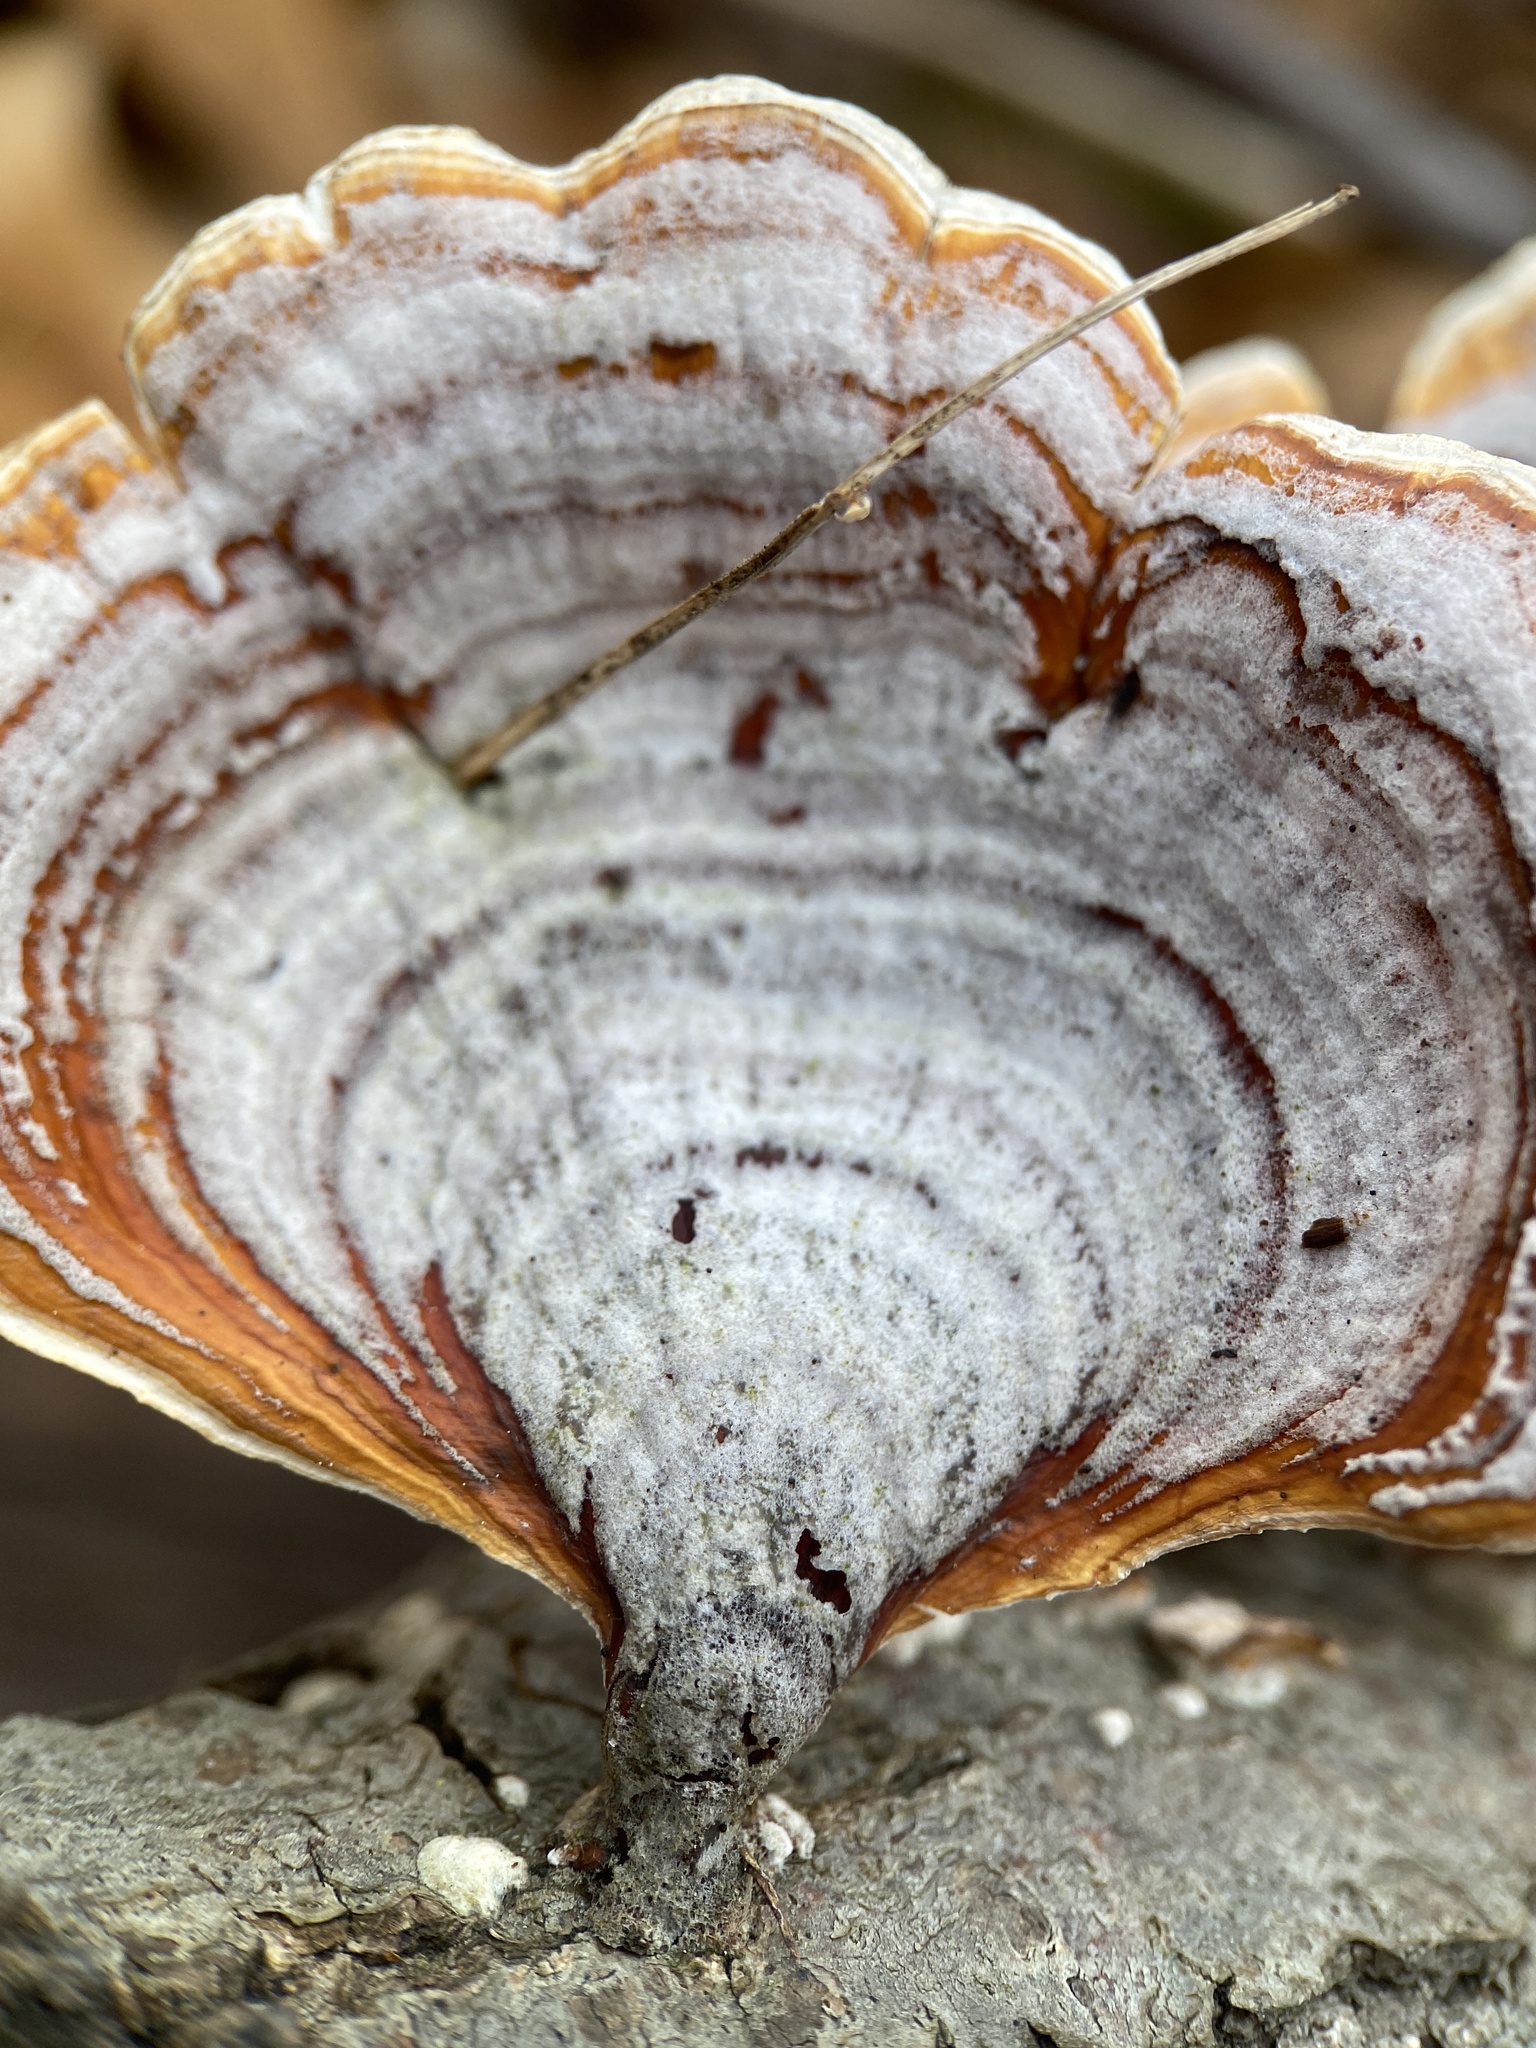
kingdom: Fungi
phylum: Basidiomycota
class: Agaricomycetes
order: Russulales
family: Stereaceae
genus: Stereum
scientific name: Stereum lobatum
